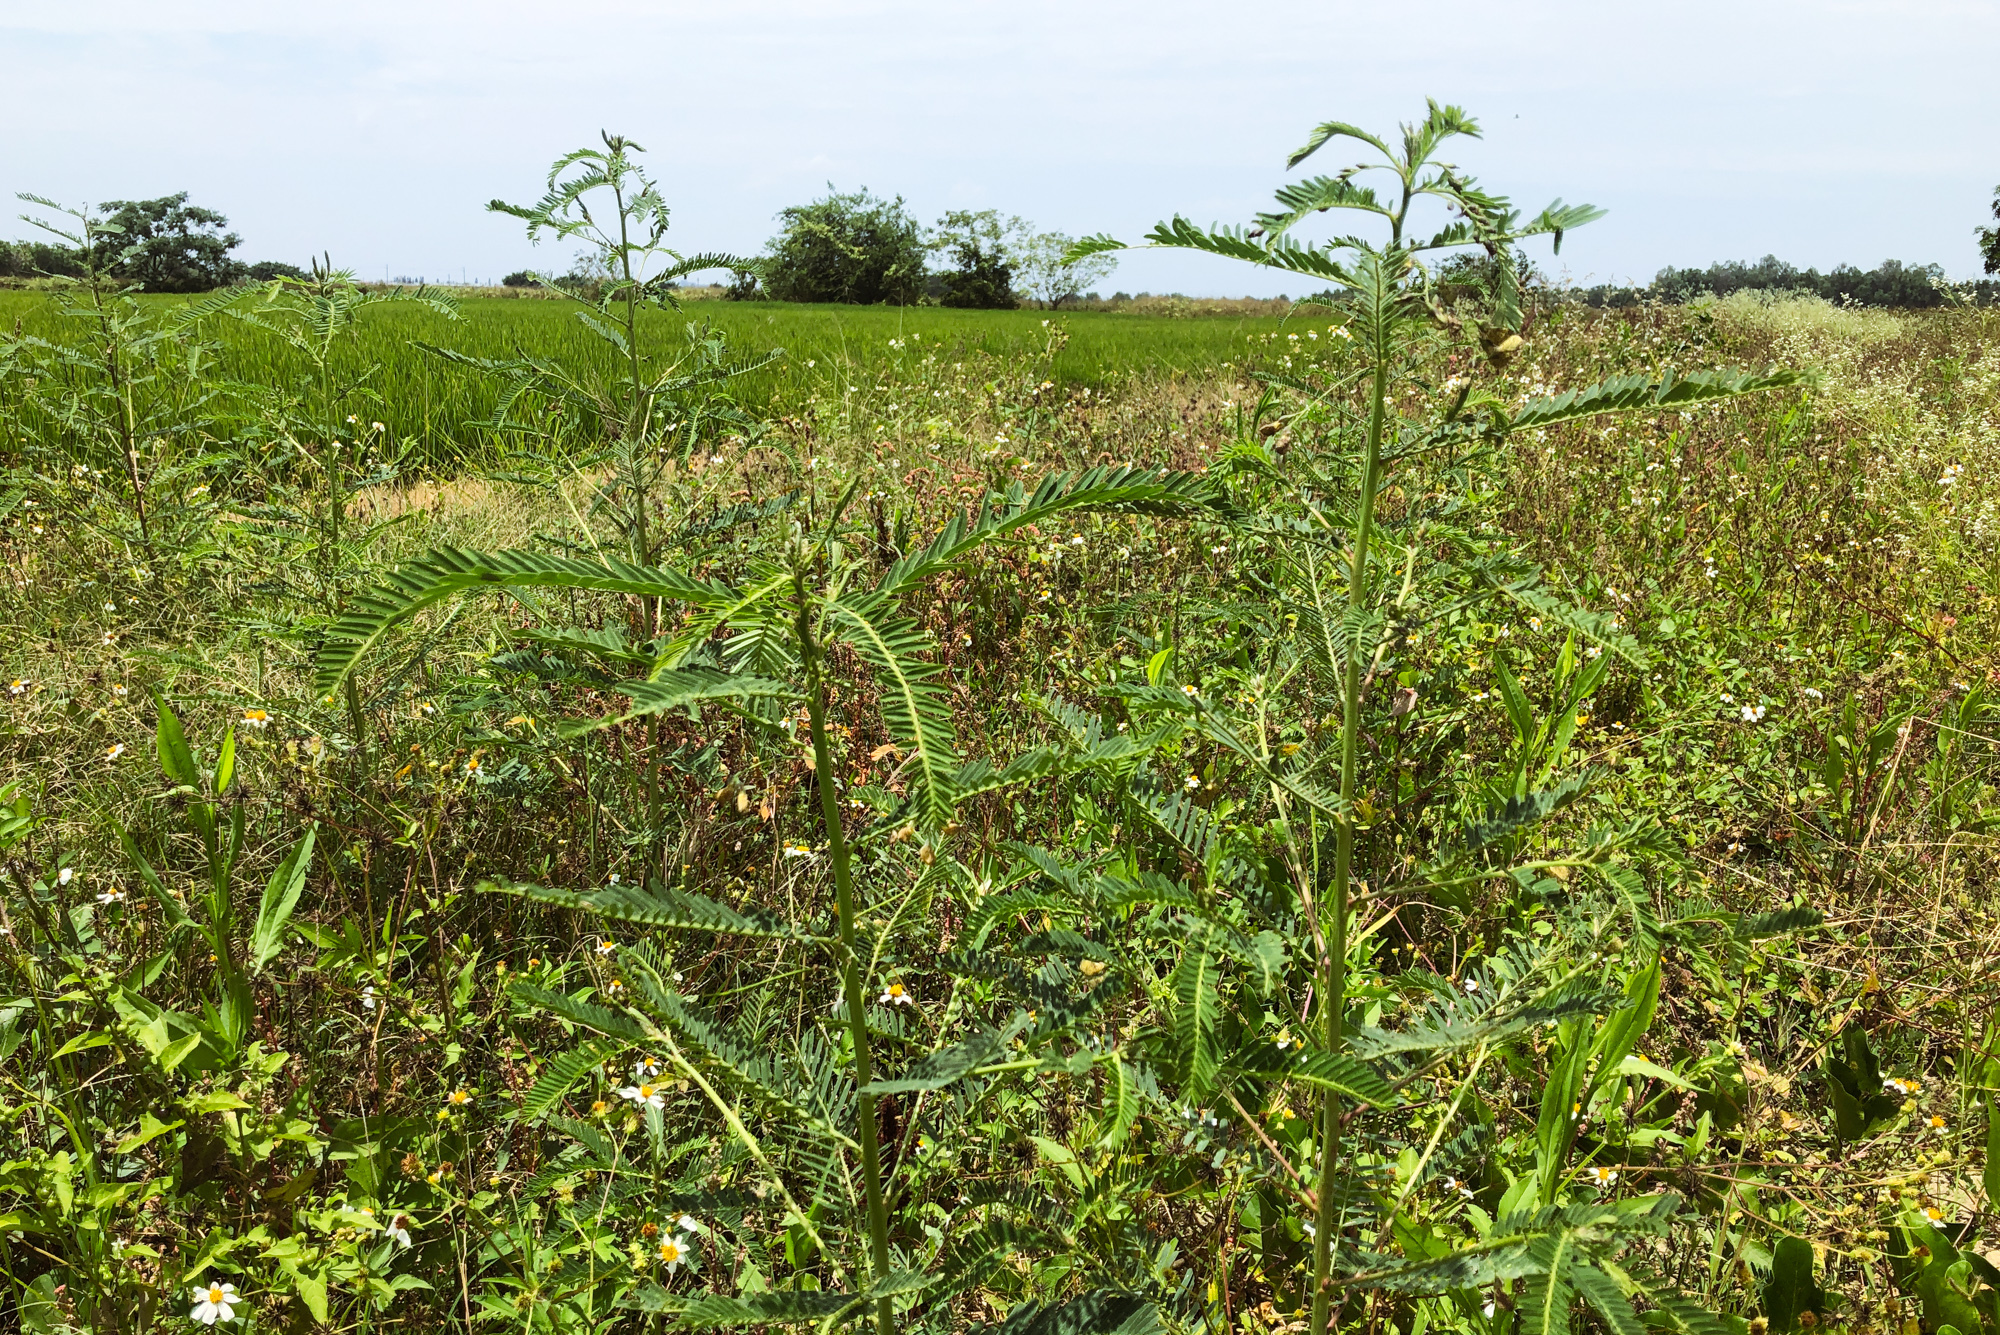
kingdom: Plantae
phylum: Tracheophyta
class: Magnoliopsida
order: Fabales
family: Fabaceae
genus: Sesbania
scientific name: Sesbania cannabina
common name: Canicha
